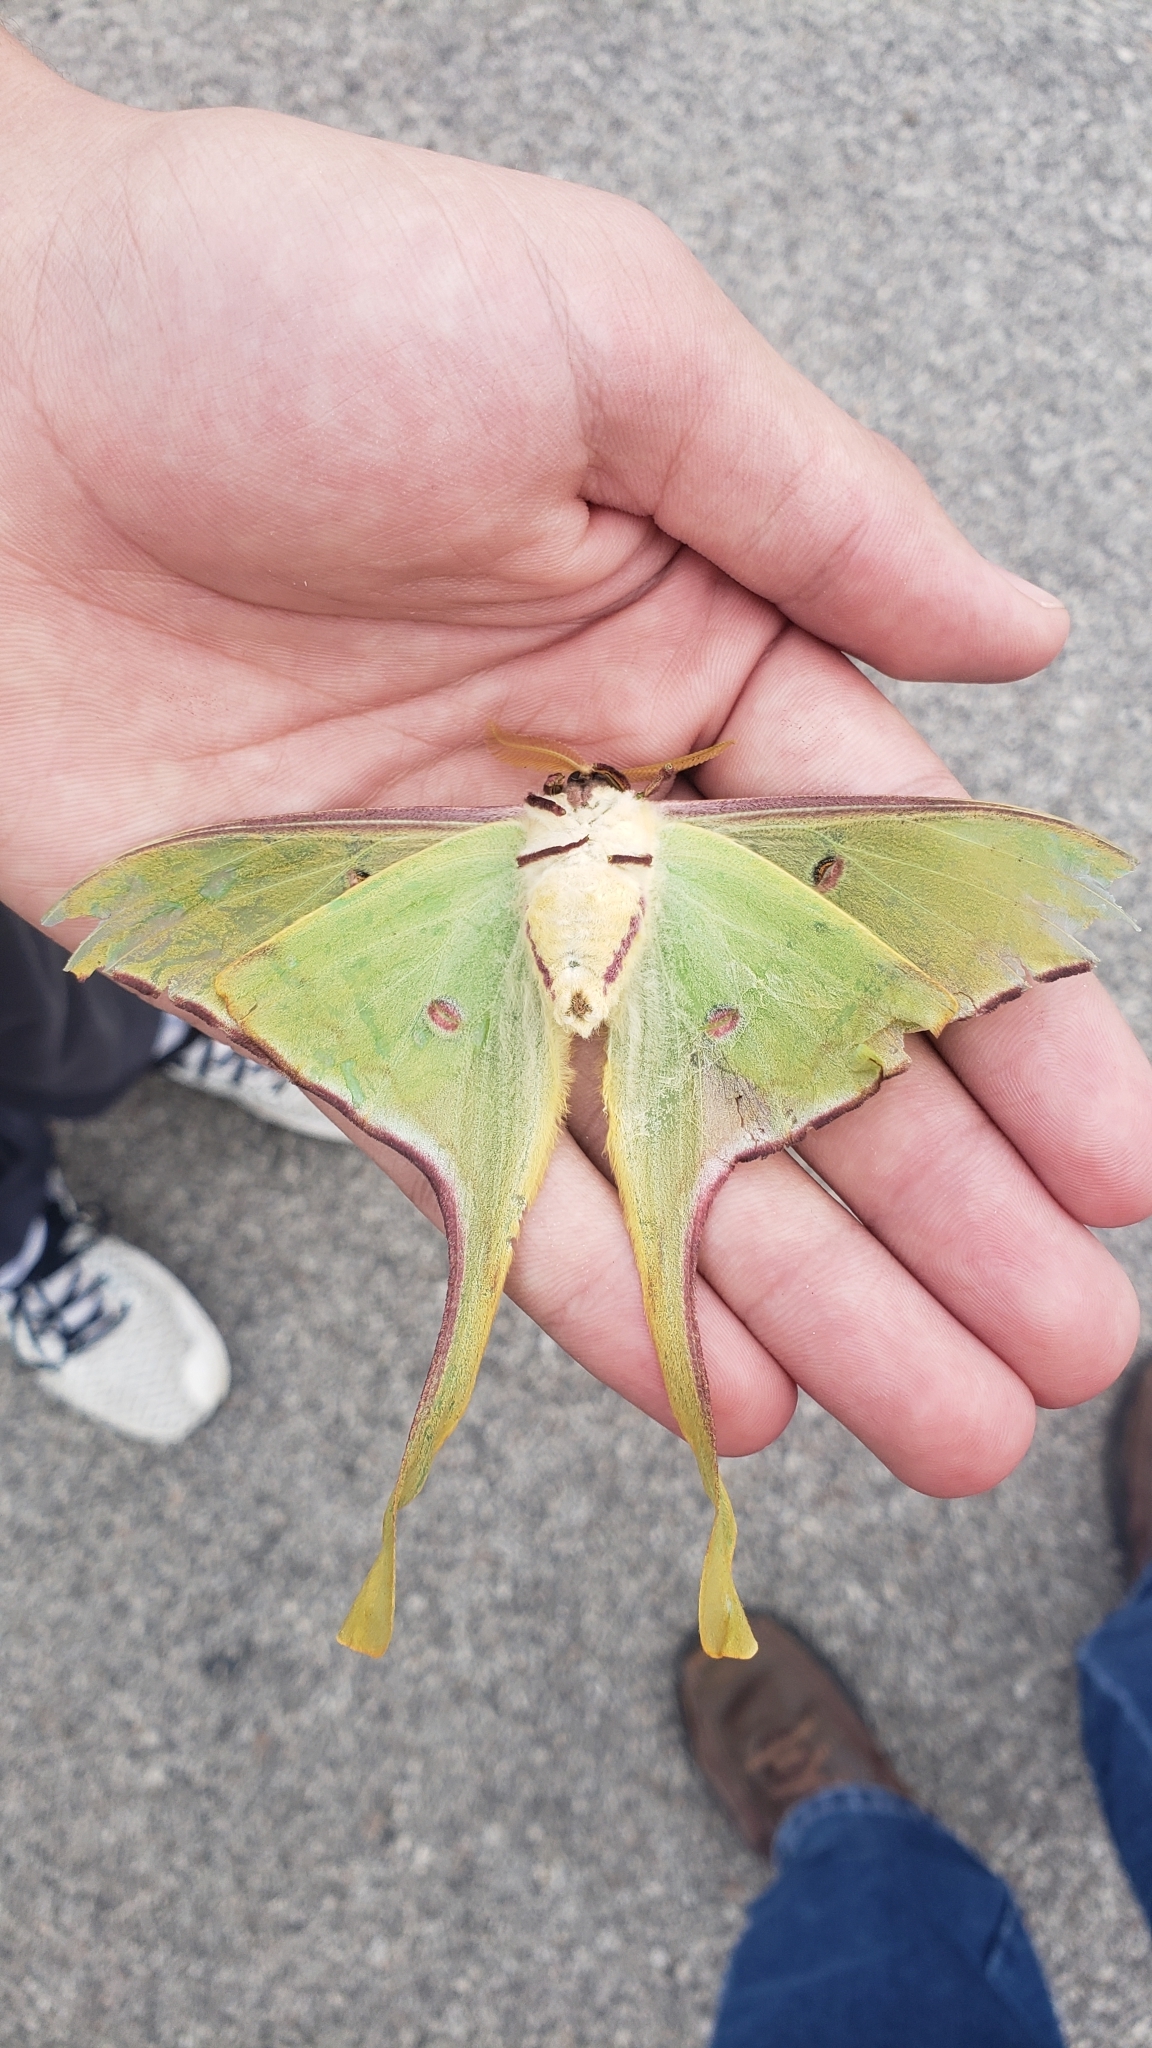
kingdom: Animalia
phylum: Arthropoda
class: Insecta
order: Lepidoptera
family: Saturniidae
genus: Actias
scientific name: Actias luna
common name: Luna moth
